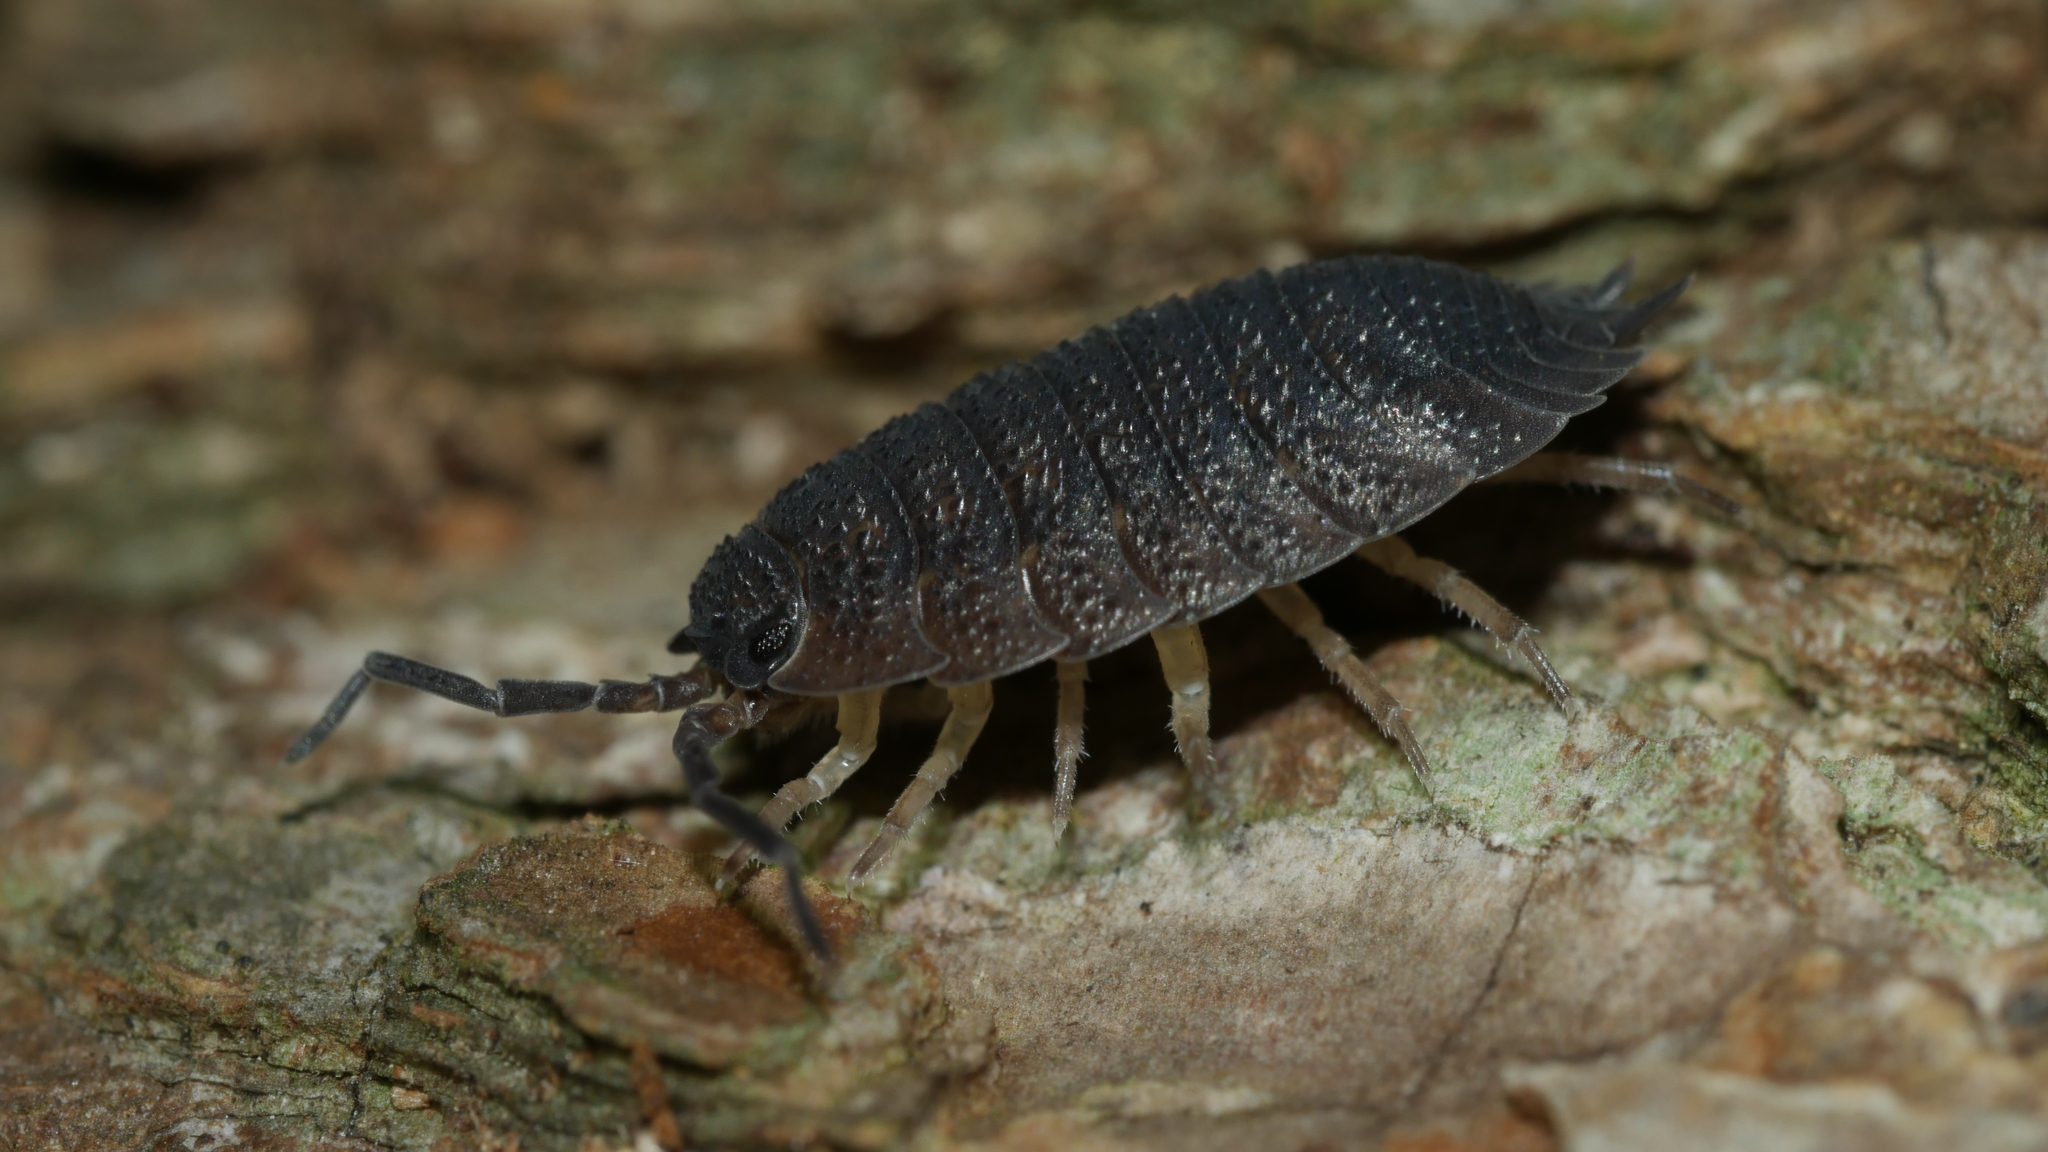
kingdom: Animalia
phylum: Arthropoda
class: Malacostraca
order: Isopoda
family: Porcellionidae
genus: Porcellio
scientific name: Porcellio scaber
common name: Common rough woodlouse
